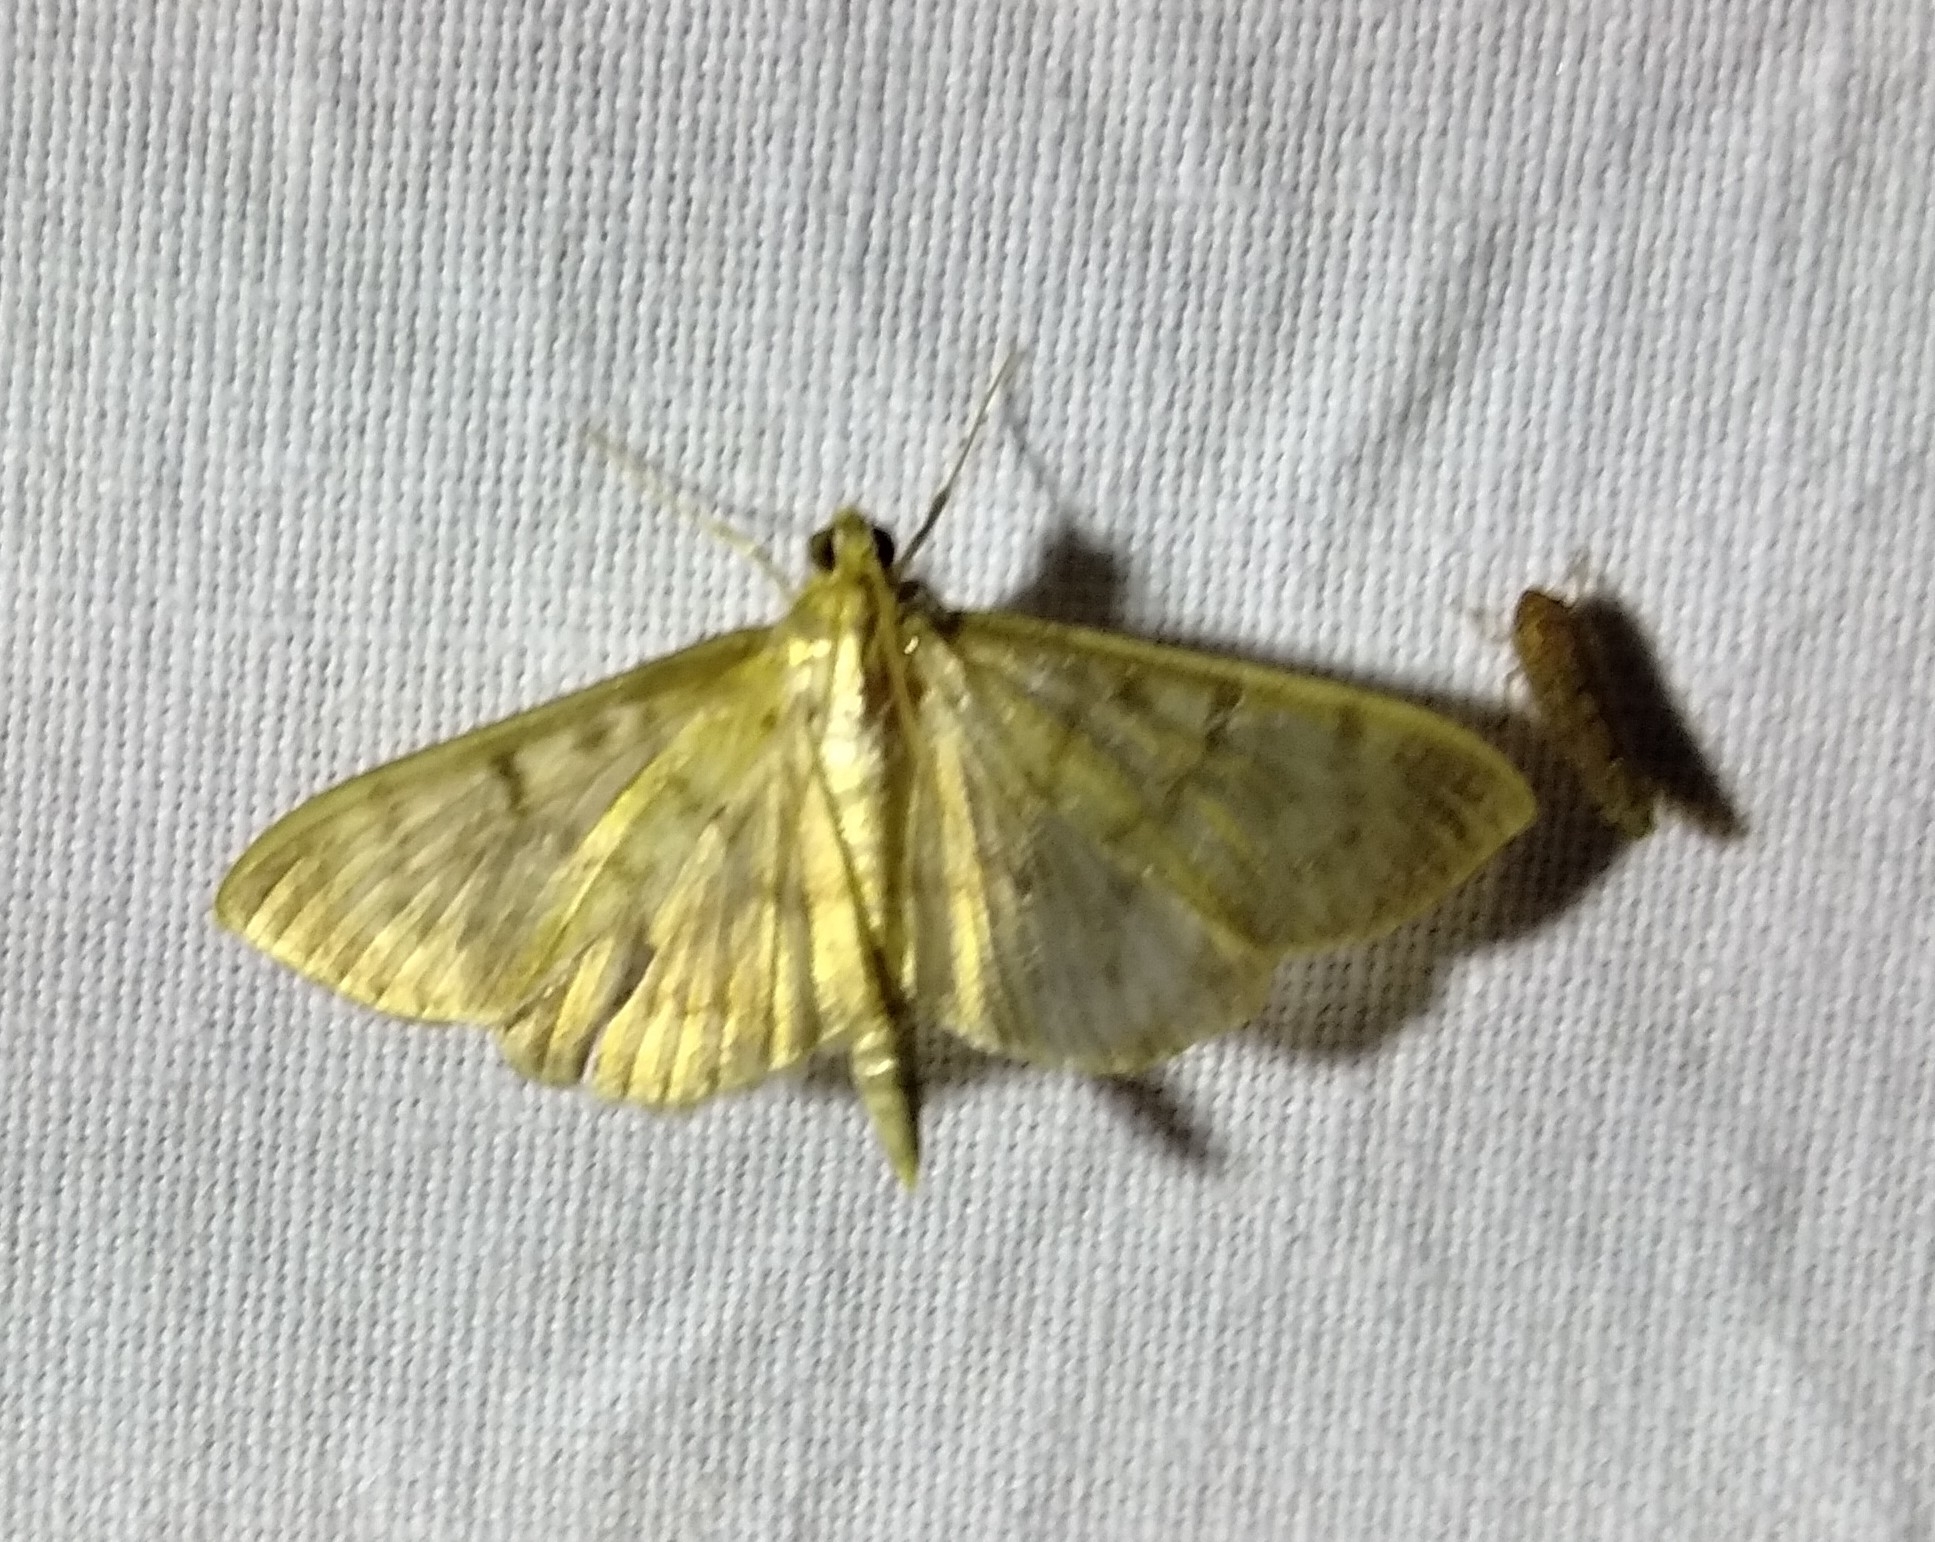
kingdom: Animalia
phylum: Arthropoda
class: Insecta
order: Lepidoptera
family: Crambidae
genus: Patania
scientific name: Patania ruralis
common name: Mother of pearl
